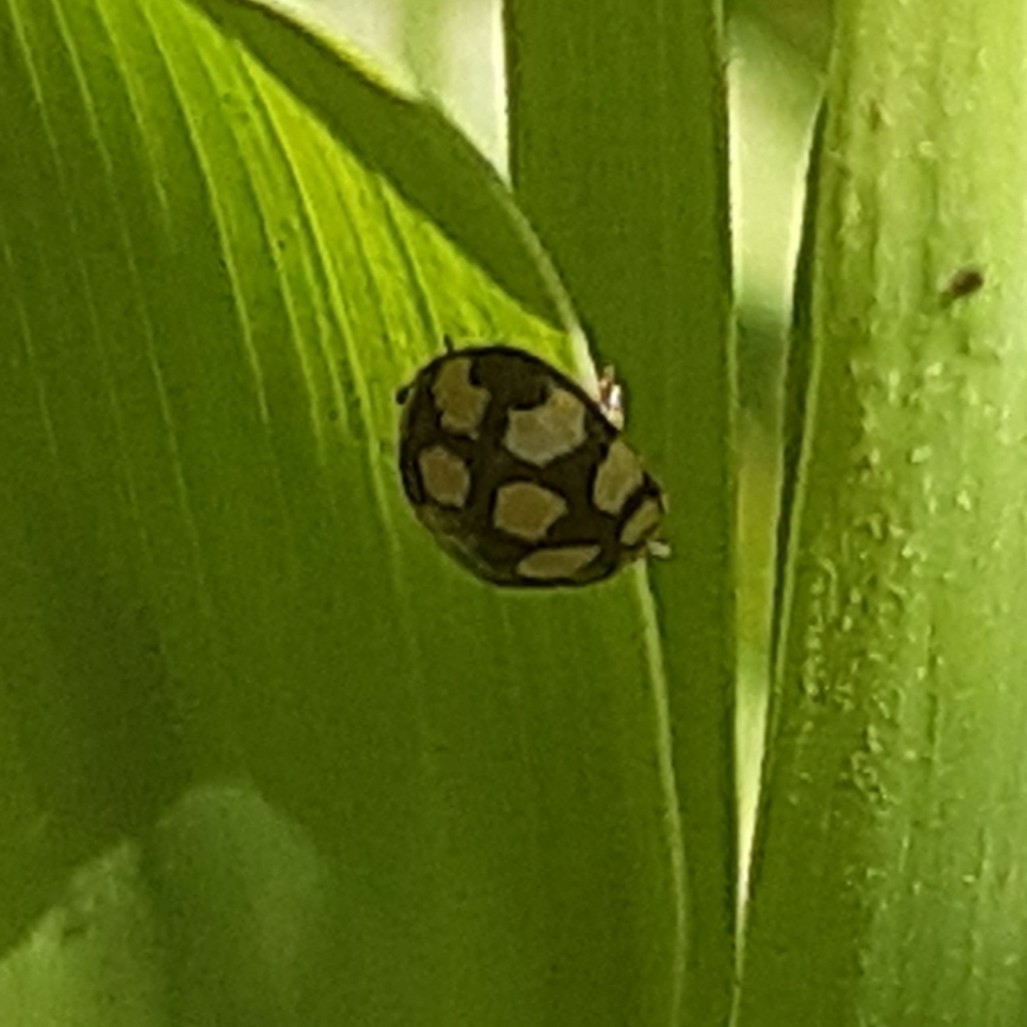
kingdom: Animalia
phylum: Arthropoda
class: Insecta
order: Coleoptera
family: Coccinellidae
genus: Coccinula
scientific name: Coccinula quatuordecimpustulata
